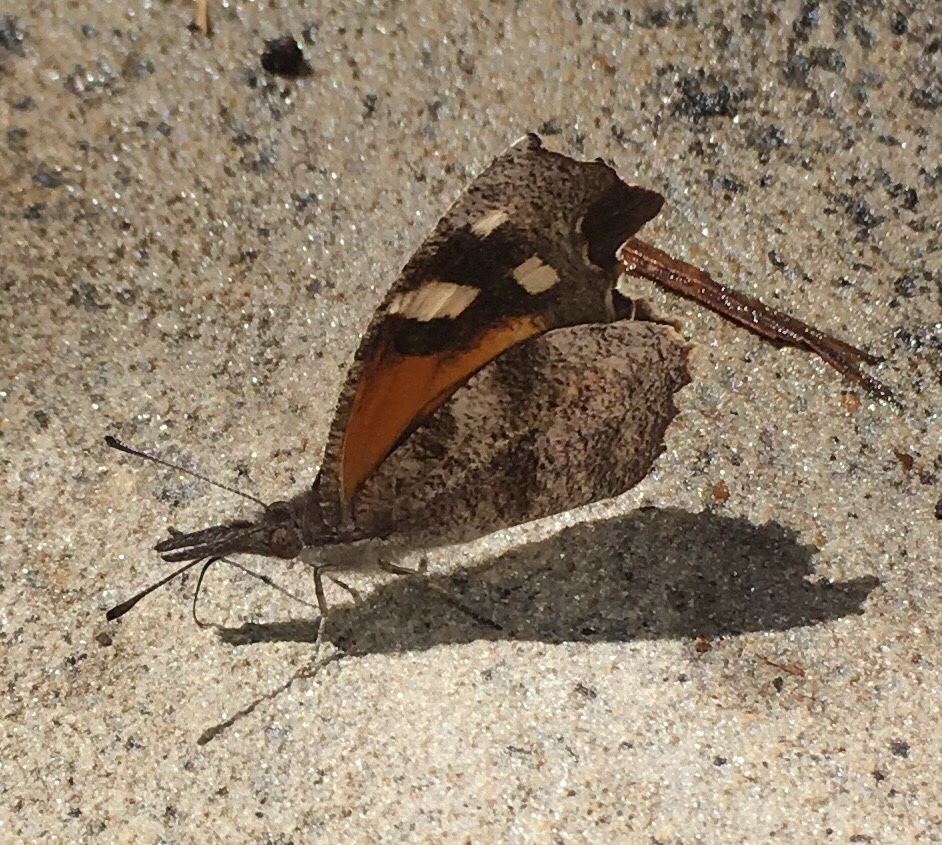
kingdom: Animalia
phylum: Arthropoda
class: Insecta
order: Lepidoptera
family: Nymphalidae
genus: Libytheana
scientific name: Libytheana carinenta
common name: American snout
